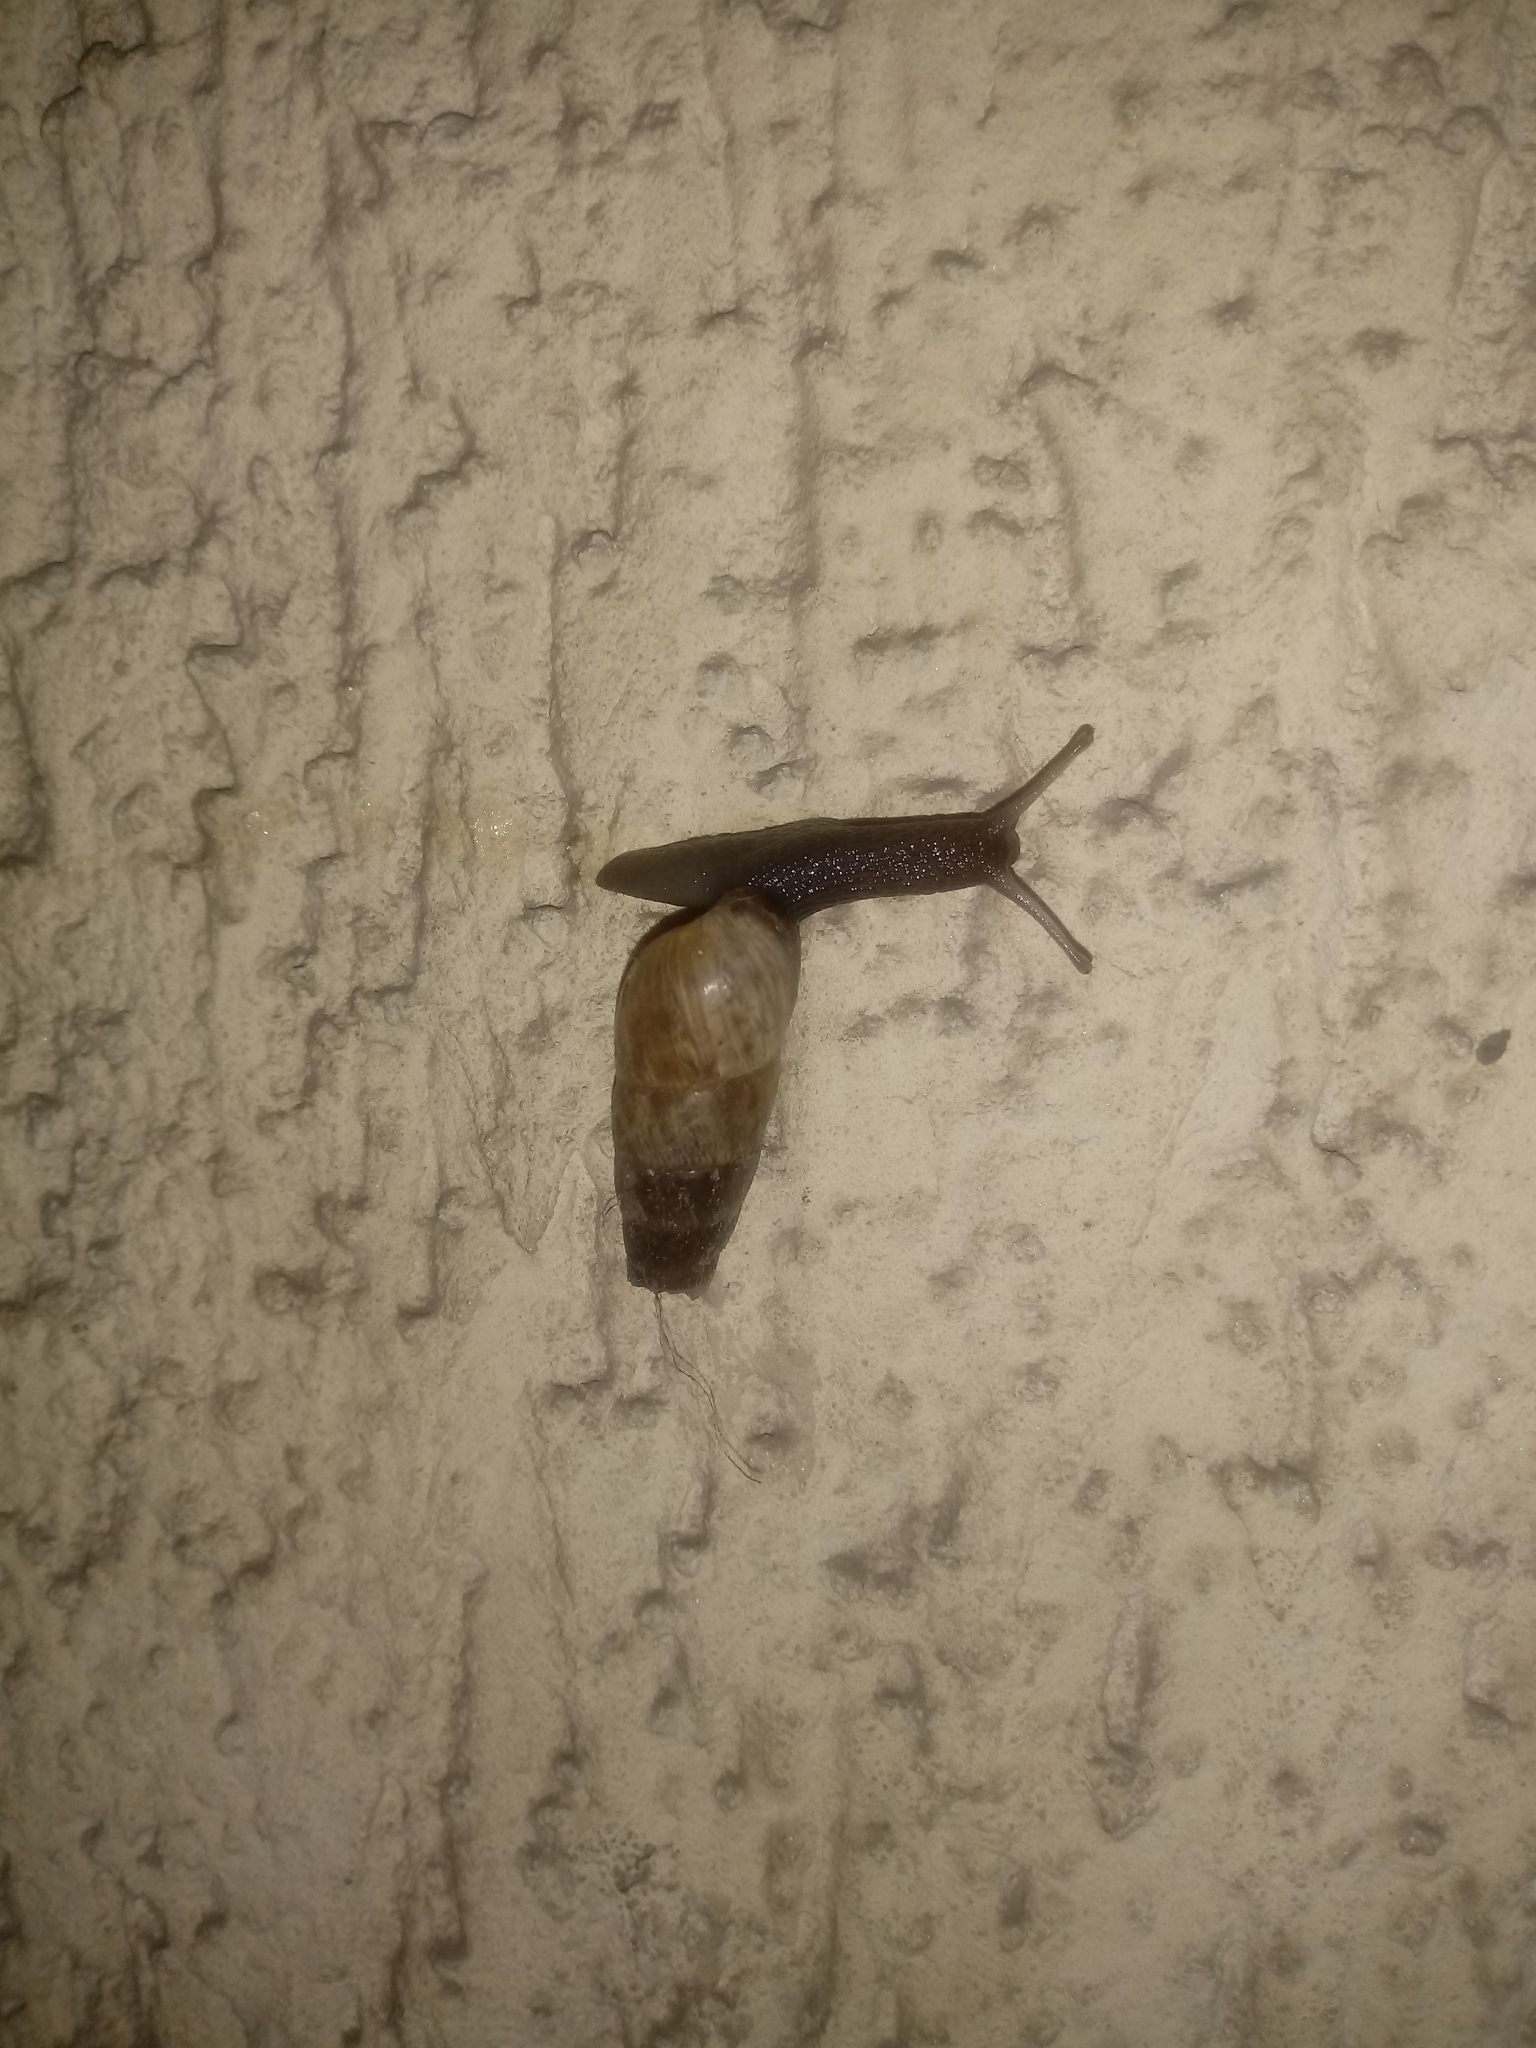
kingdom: Animalia
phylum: Mollusca
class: Gastropoda
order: Stylommatophora
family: Achatinidae
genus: Rumina
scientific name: Rumina decollata
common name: Decollate snail
